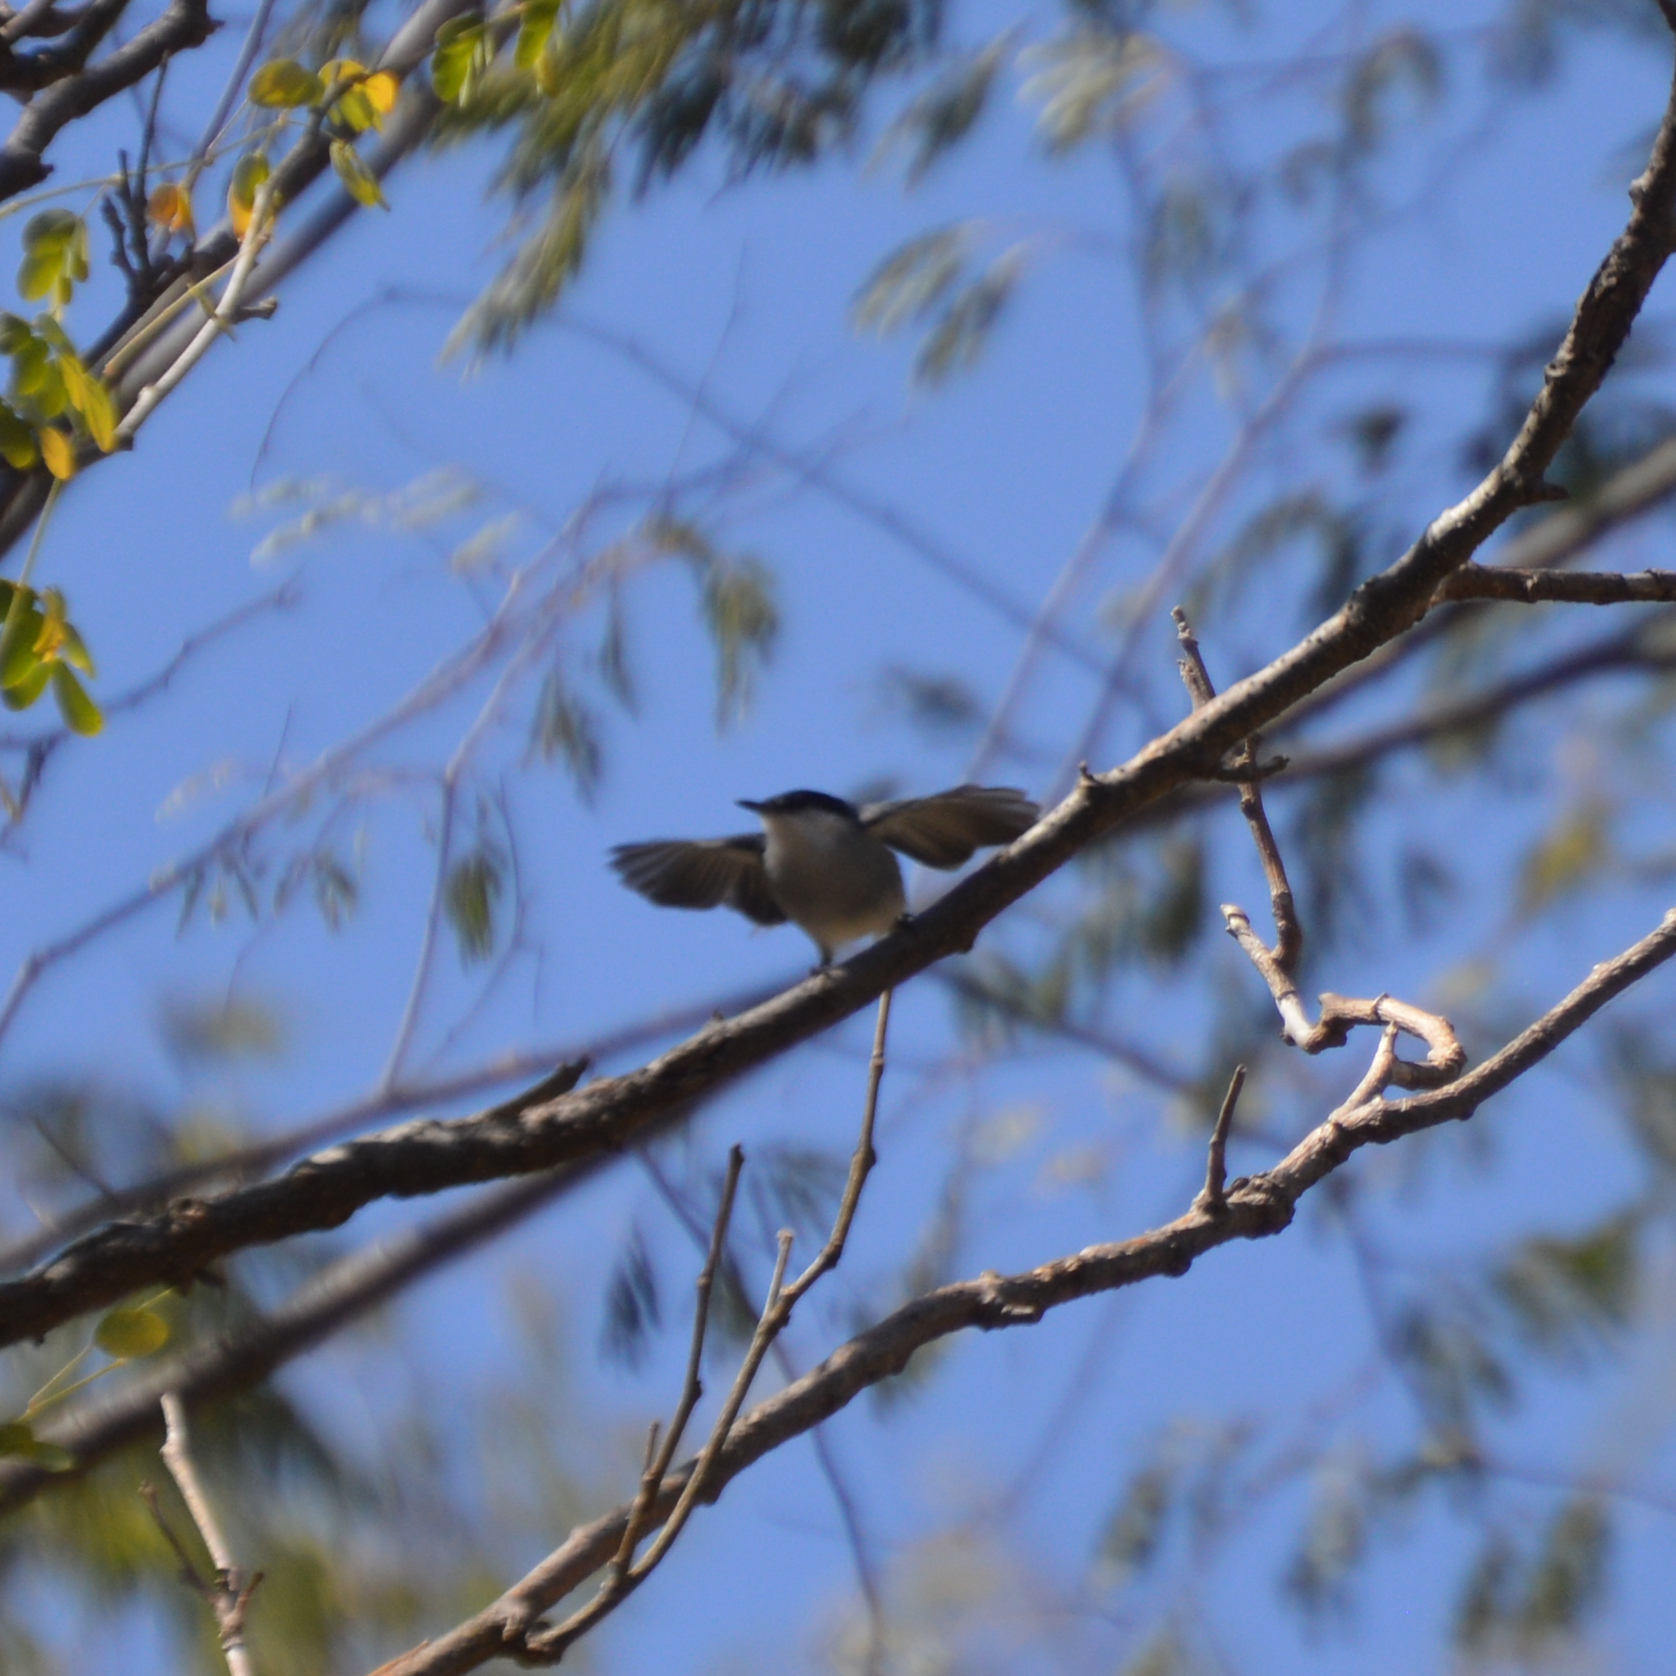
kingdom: Animalia
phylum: Chordata
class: Aves
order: Passeriformes
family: Polioptilidae
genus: Polioptila
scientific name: Polioptila albiloris
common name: White-lored gnatcatcher
